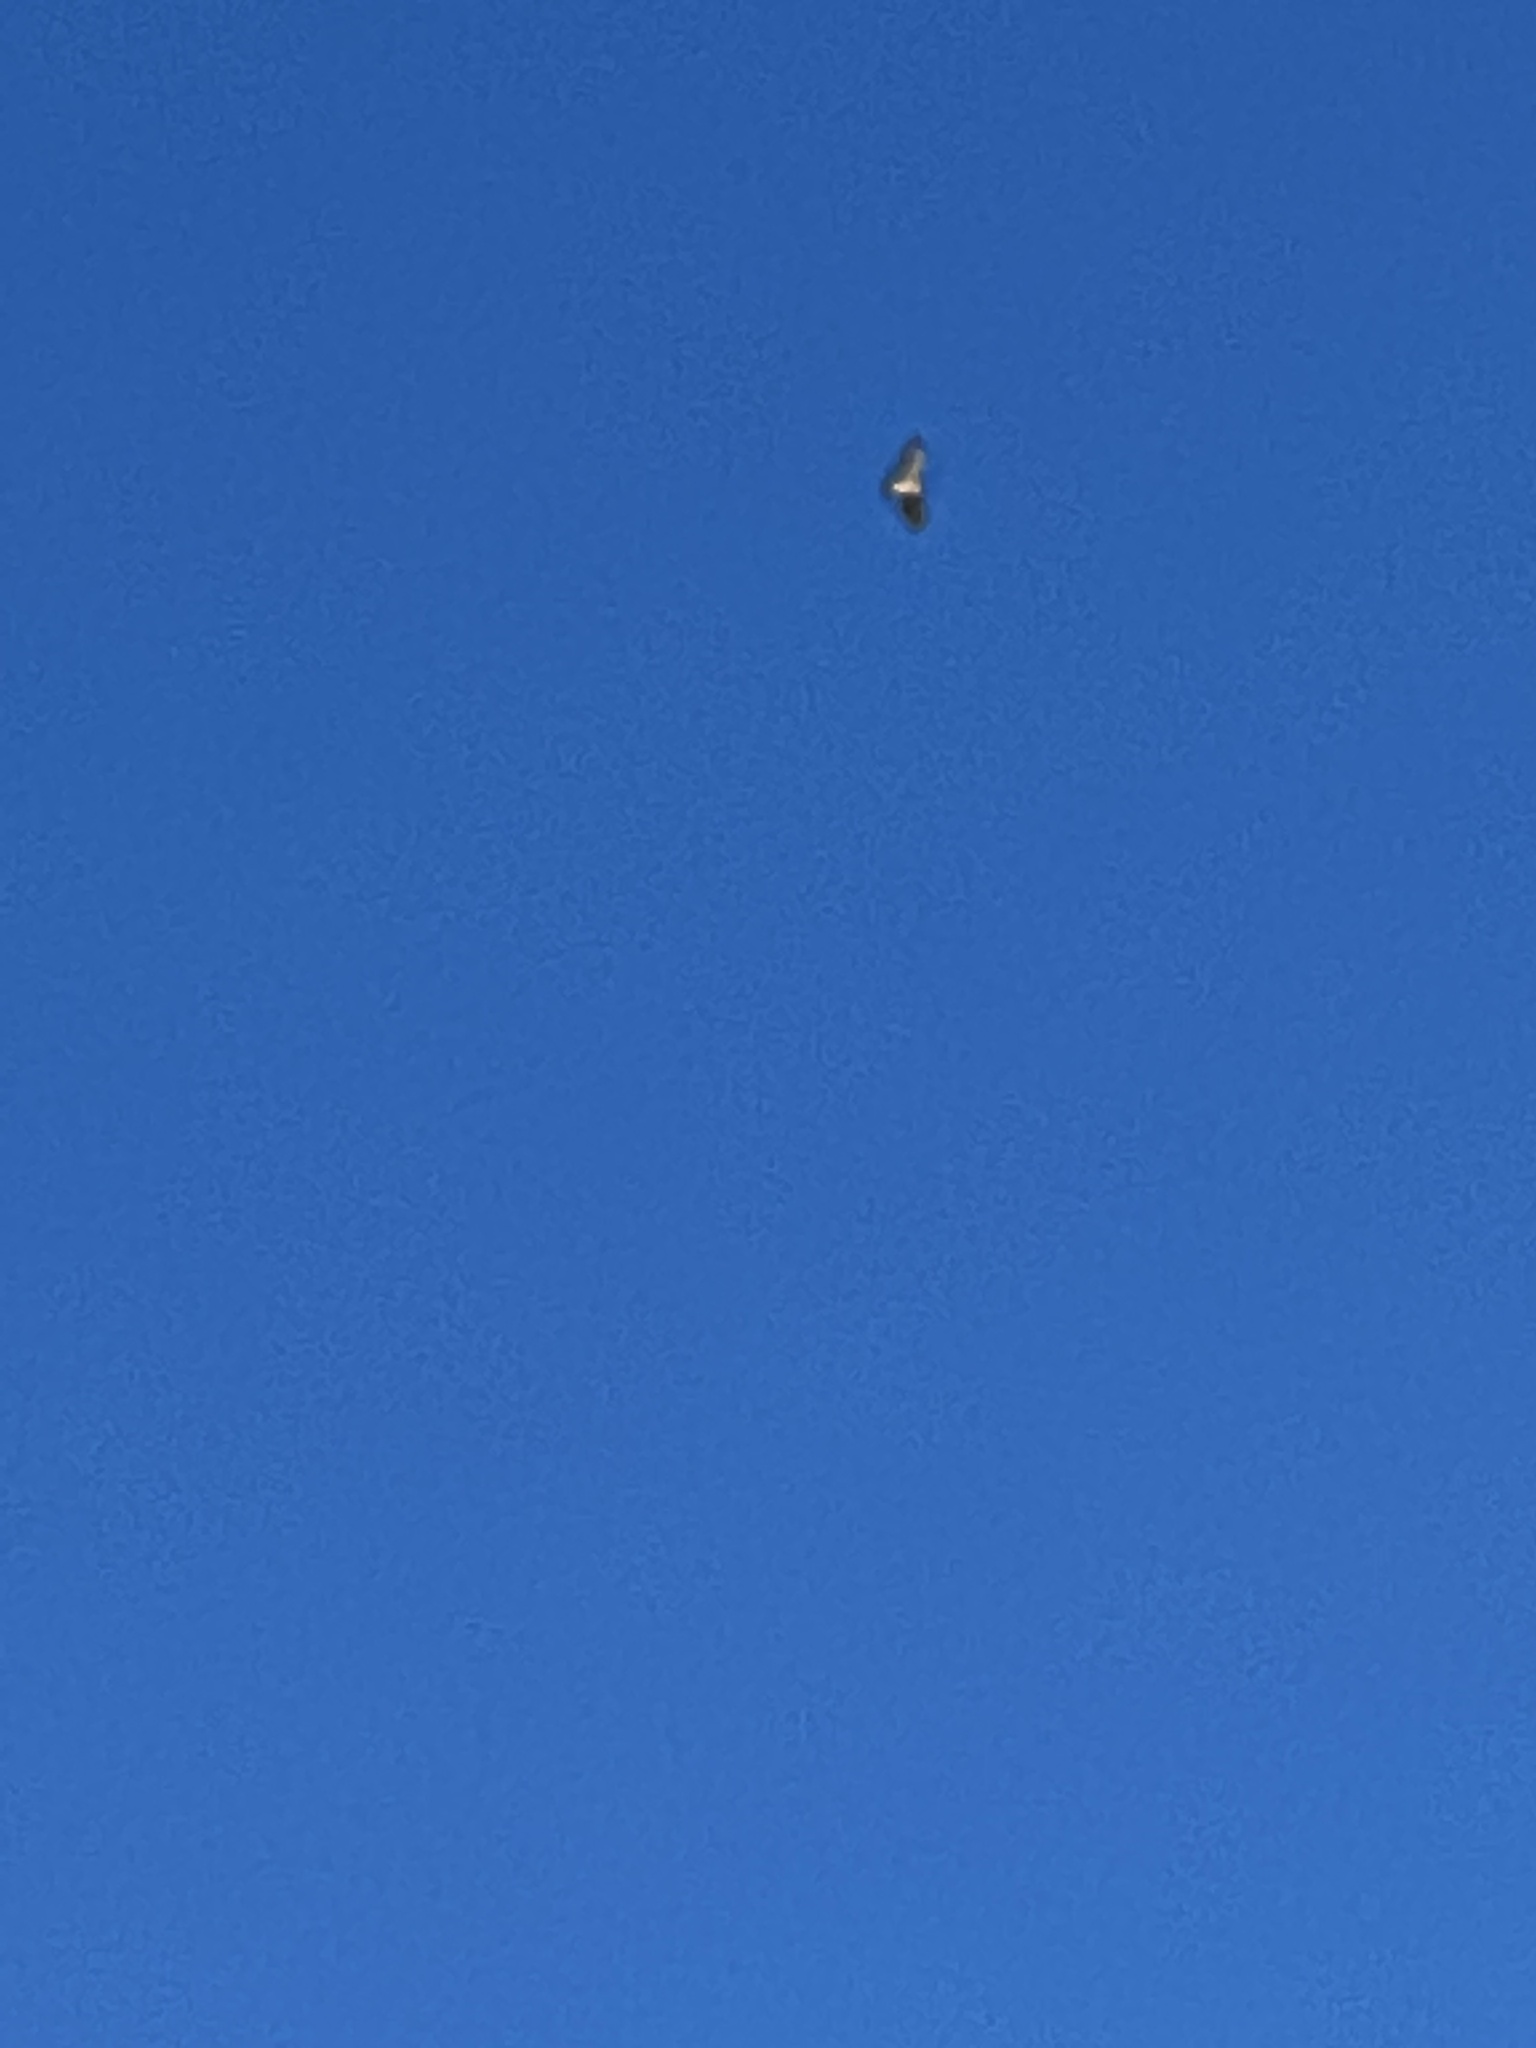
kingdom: Animalia
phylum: Chordata
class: Aves
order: Accipitriformes
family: Accipitridae
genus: Buteo
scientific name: Buteo jamaicensis
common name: Red-tailed hawk
